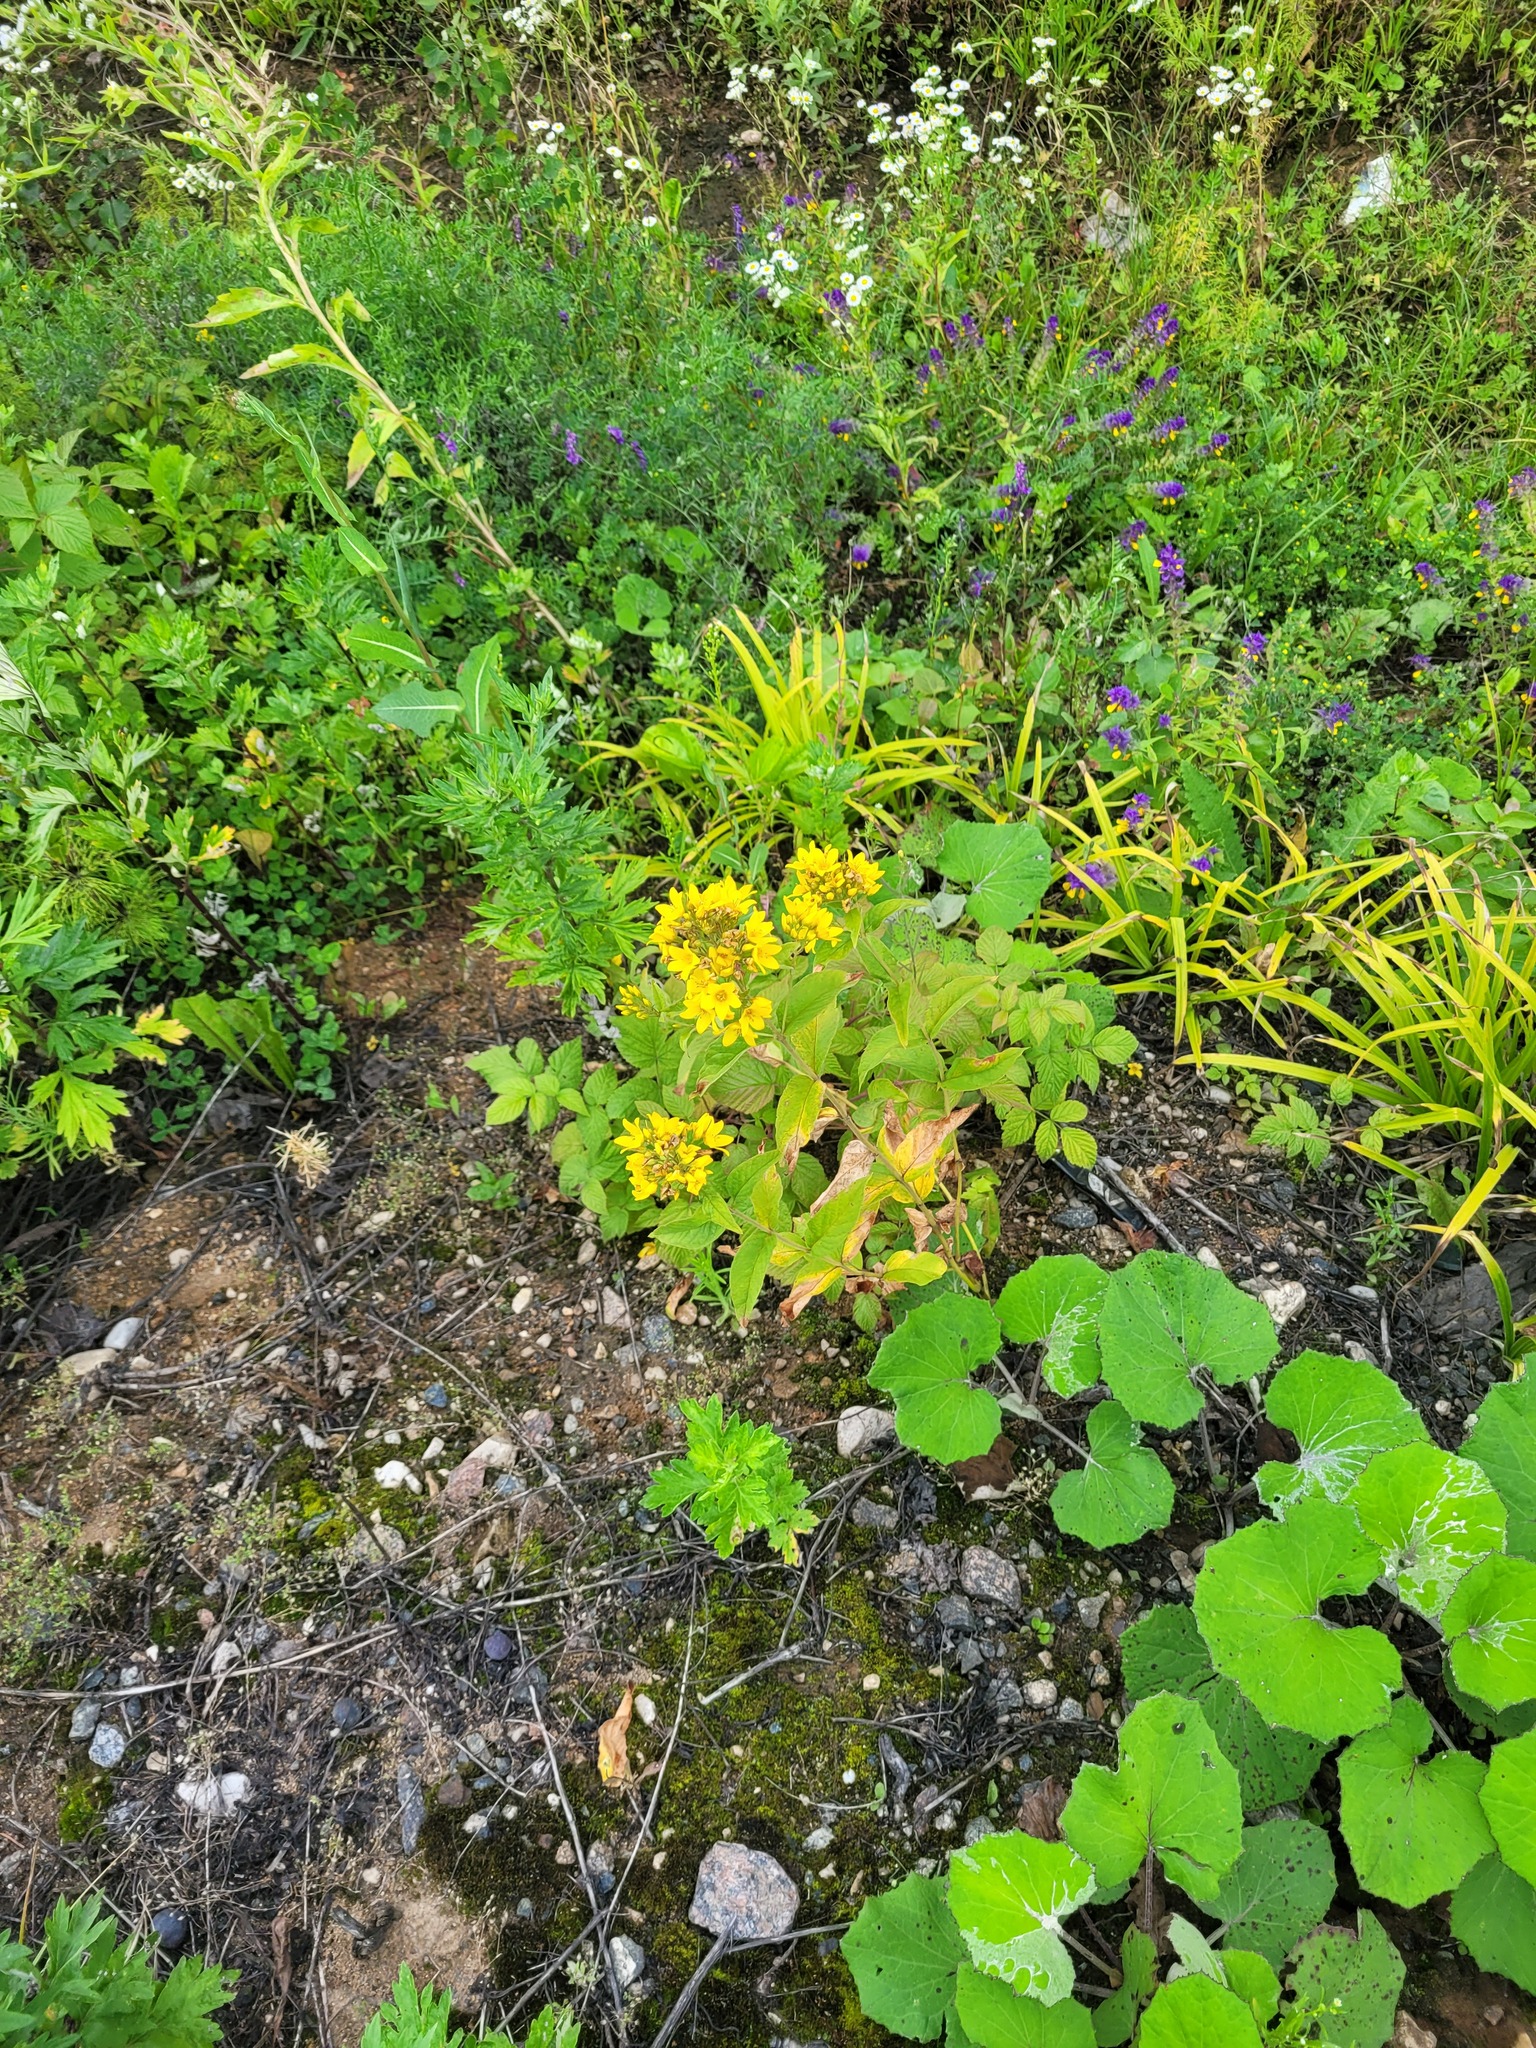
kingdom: Plantae
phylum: Tracheophyta
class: Magnoliopsida
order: Ericales
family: Primulaceae
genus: Lysimachia
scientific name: Lysimachia vulgaris
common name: Yellow loosestrife
